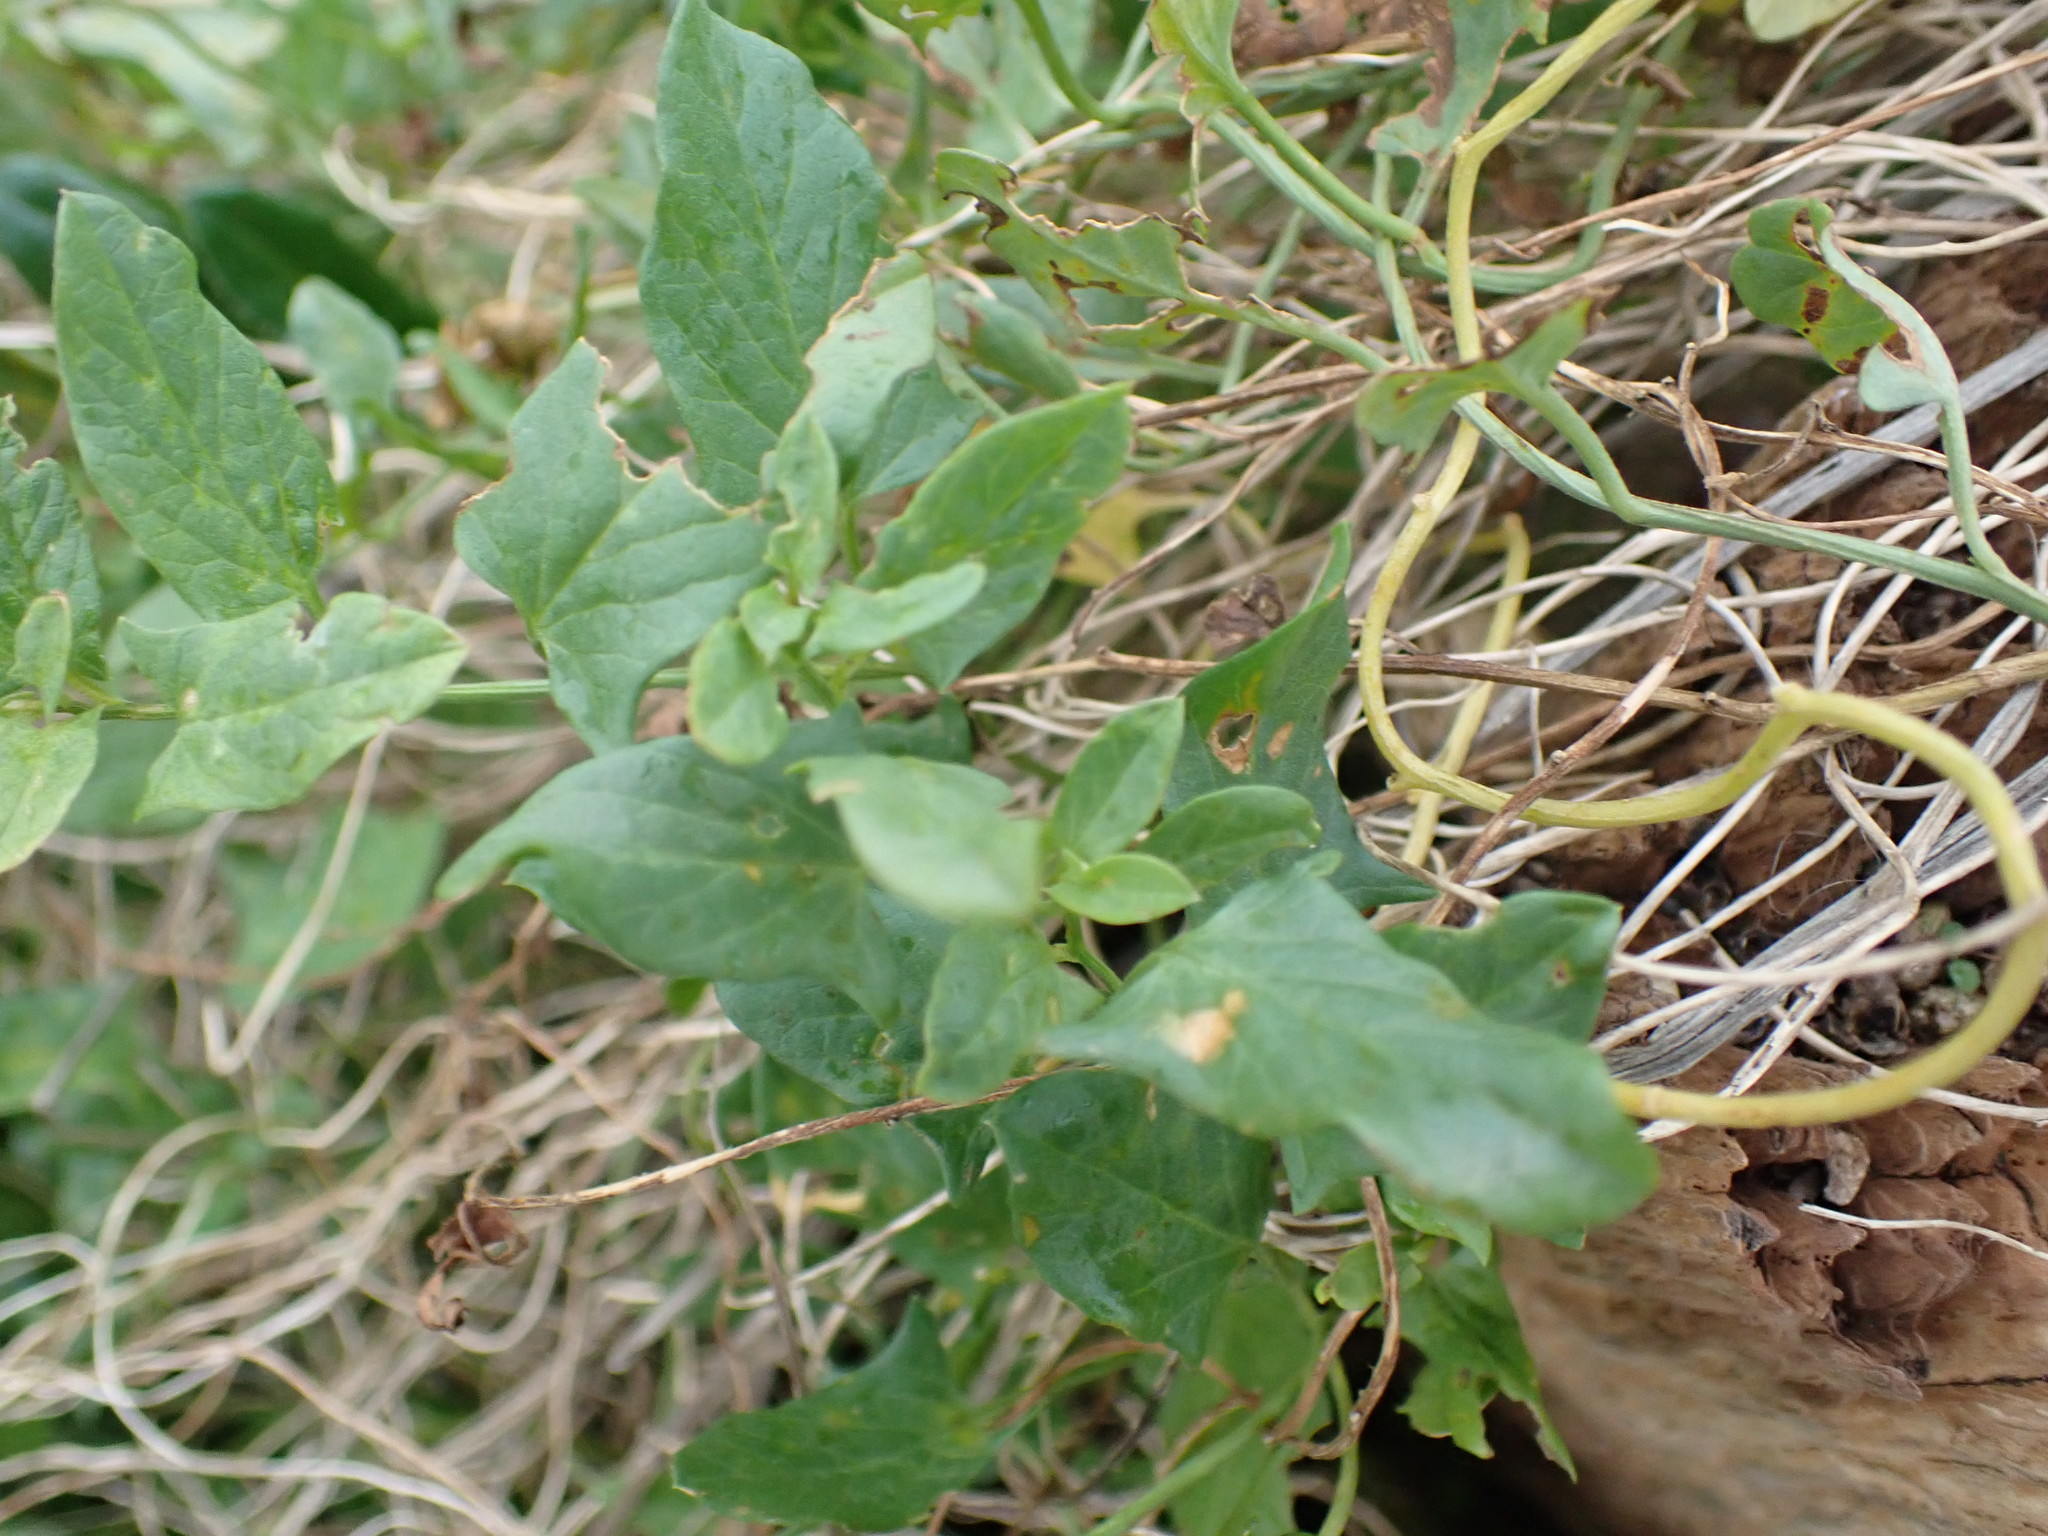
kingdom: Plantae
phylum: Tracheophyta
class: Magnoliopsida
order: Solanales
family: Convolvulaceae
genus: Convolvulus
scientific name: Convolvulus arvensis
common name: Field bindweed
